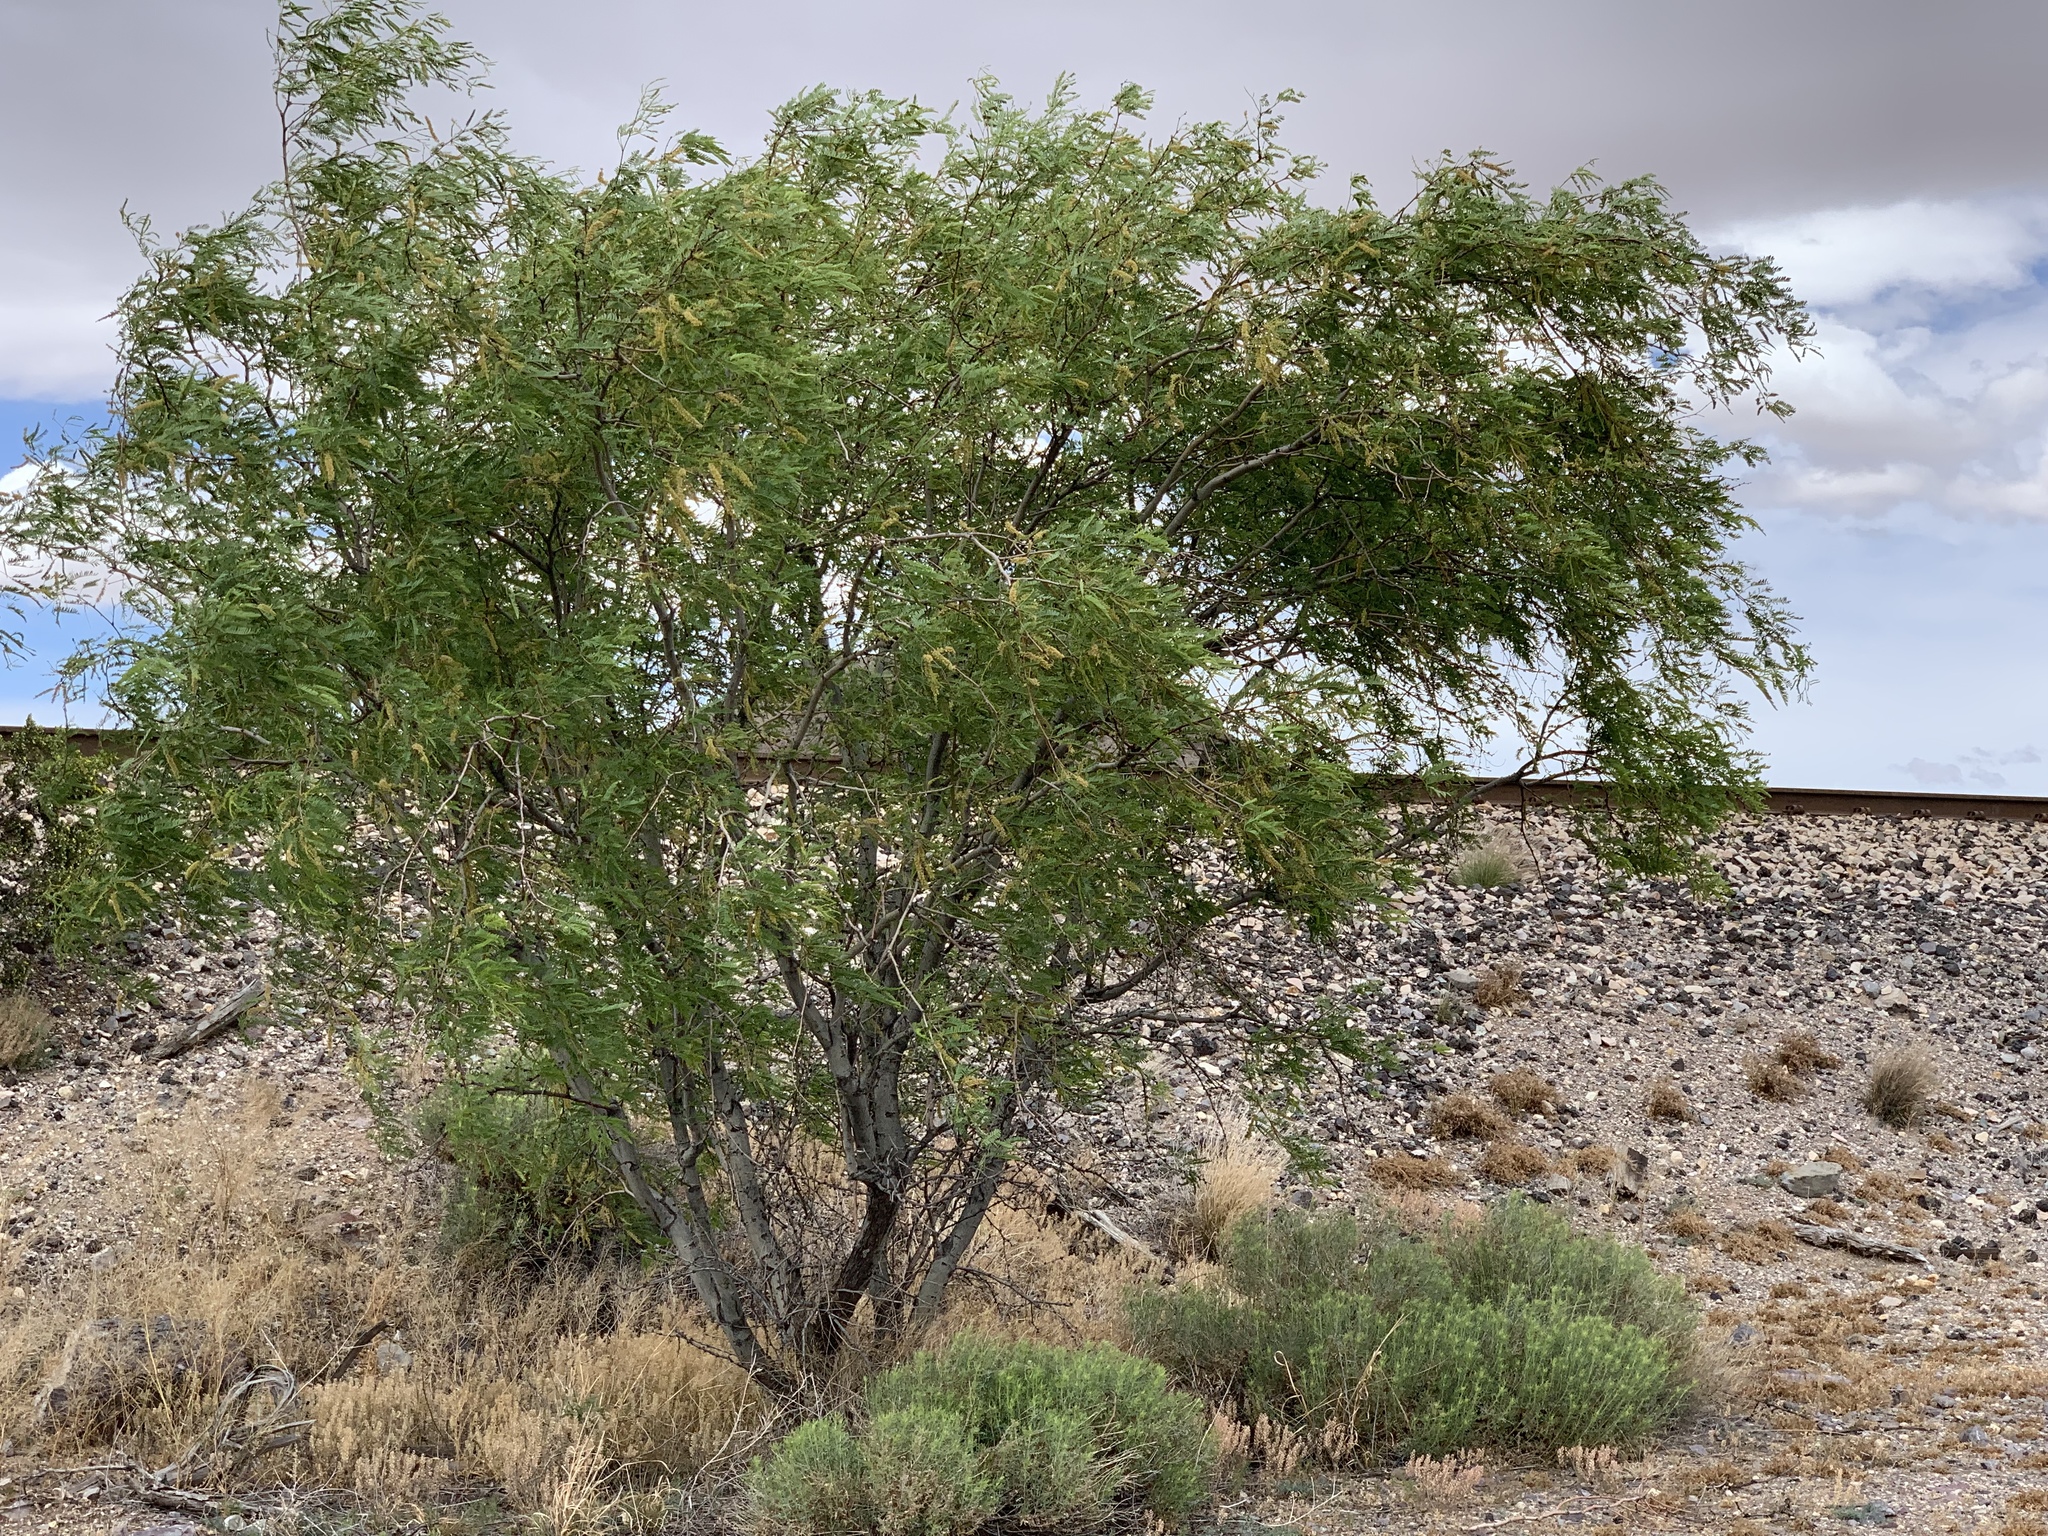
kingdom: Plantae
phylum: Tracheophyta
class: Magnoliopsida
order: Fabales
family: Fabaceae
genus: Prosopis
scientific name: Prosopis velutina
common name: Velvet mesquite
